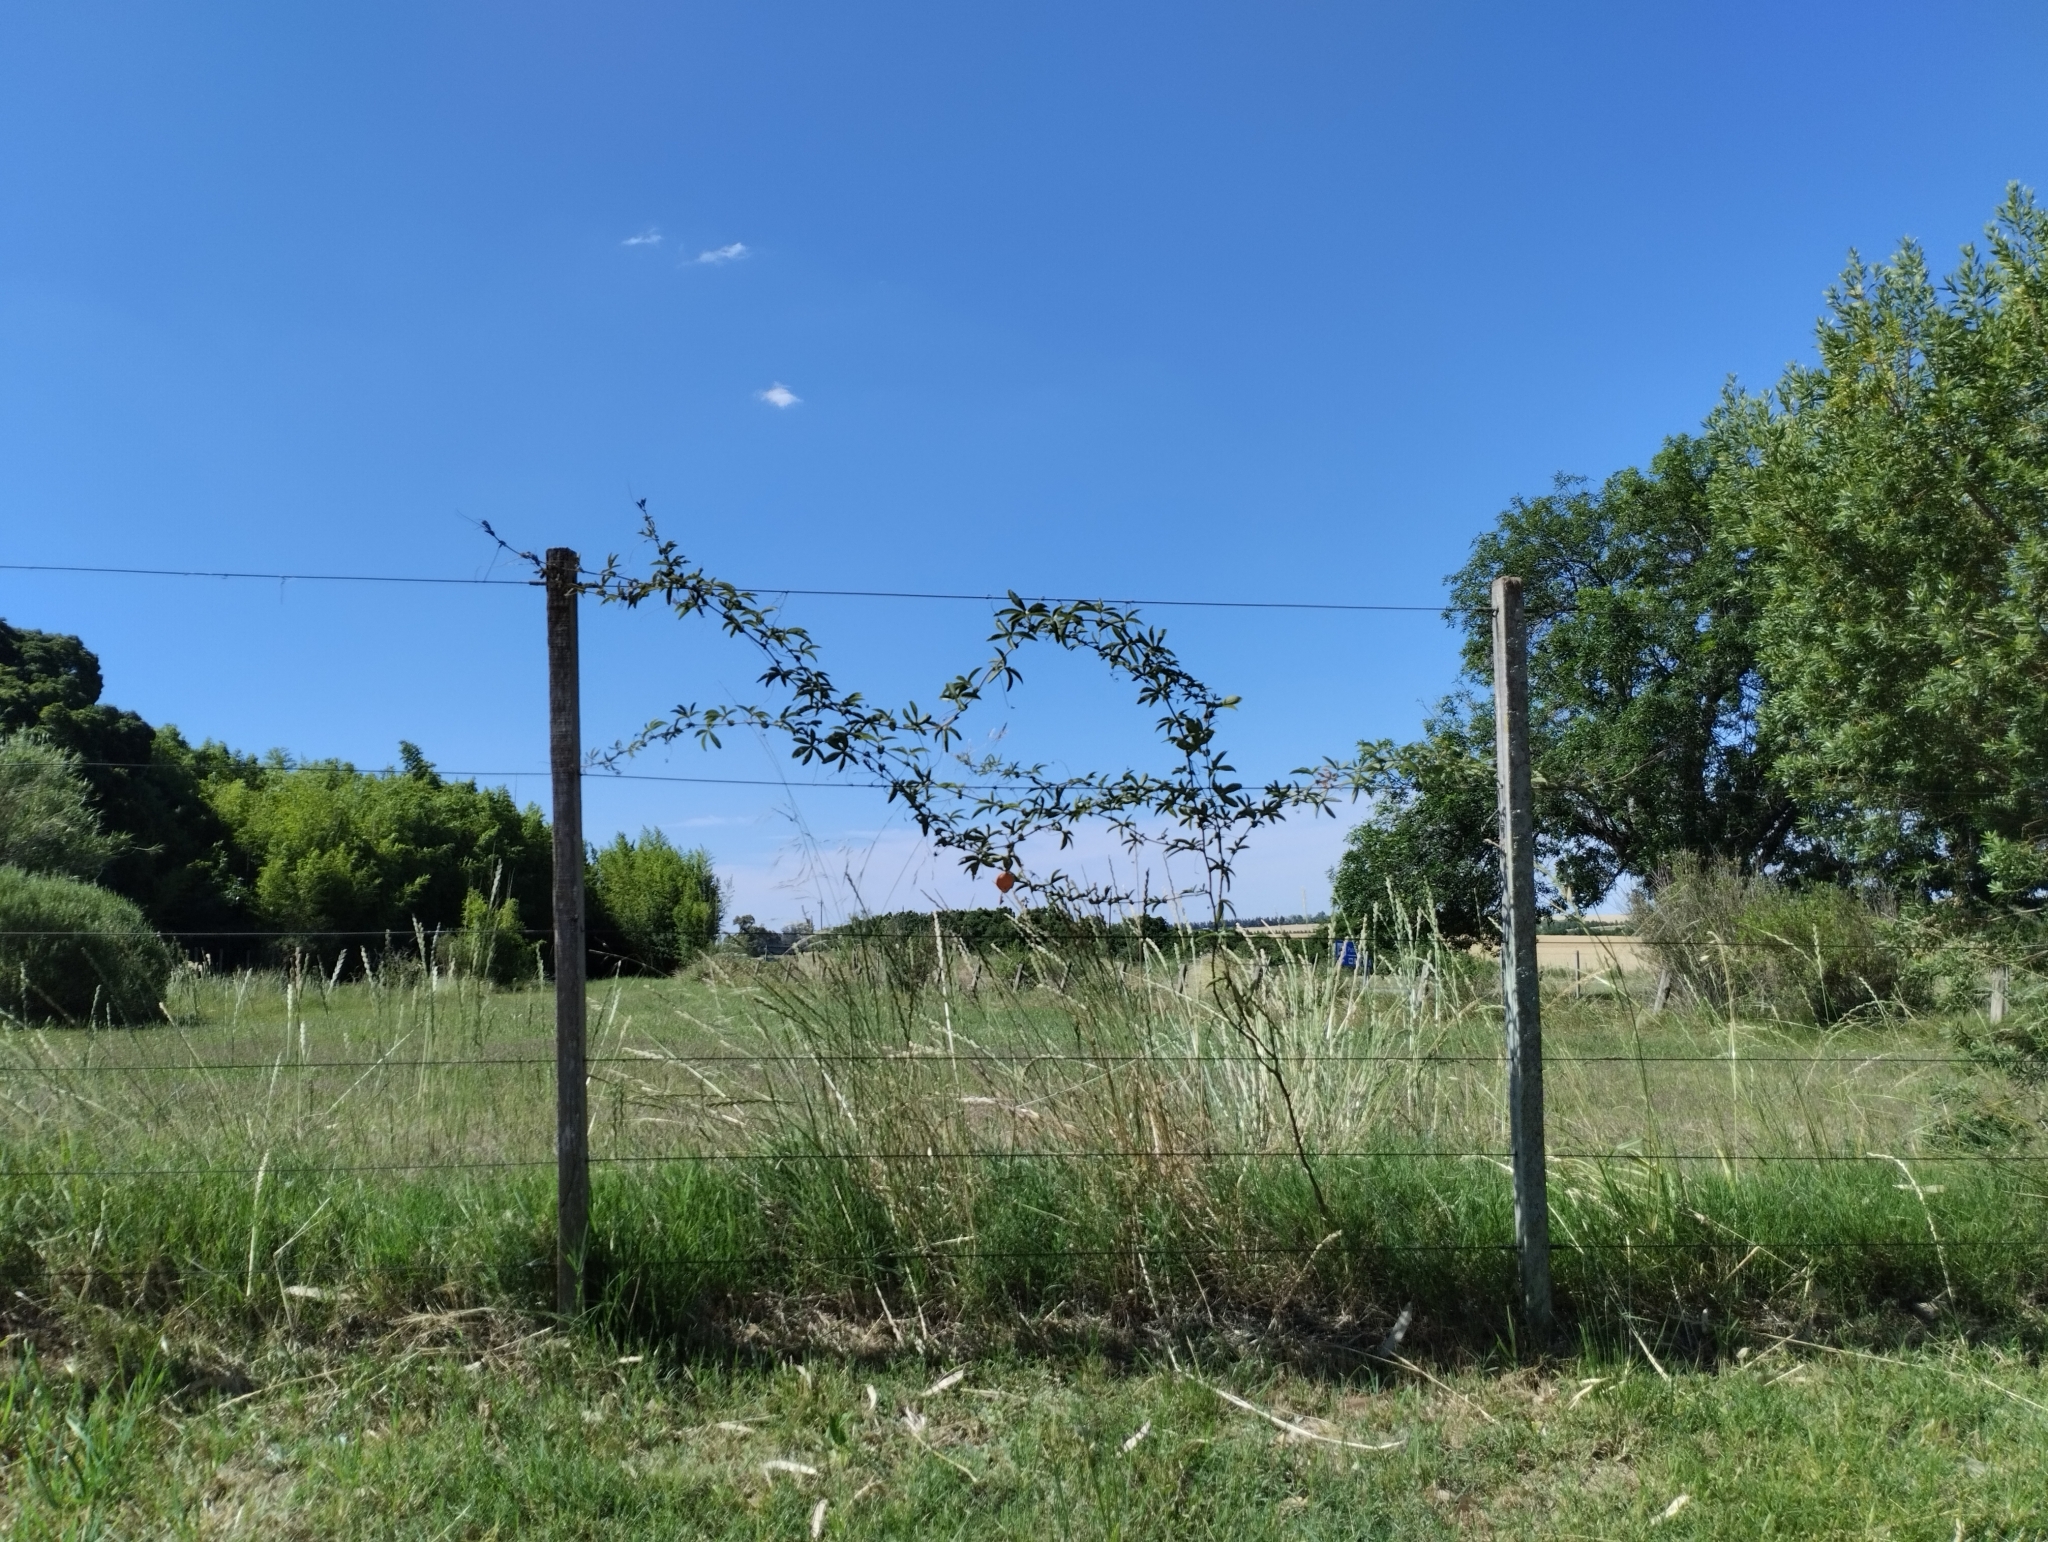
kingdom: Plantae
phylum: Tracheophyta
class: Magnoliopsida
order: Malpighiales
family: Passifloraceae
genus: Passiflora
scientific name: Passiflora caerulea
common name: Blue passionflower
